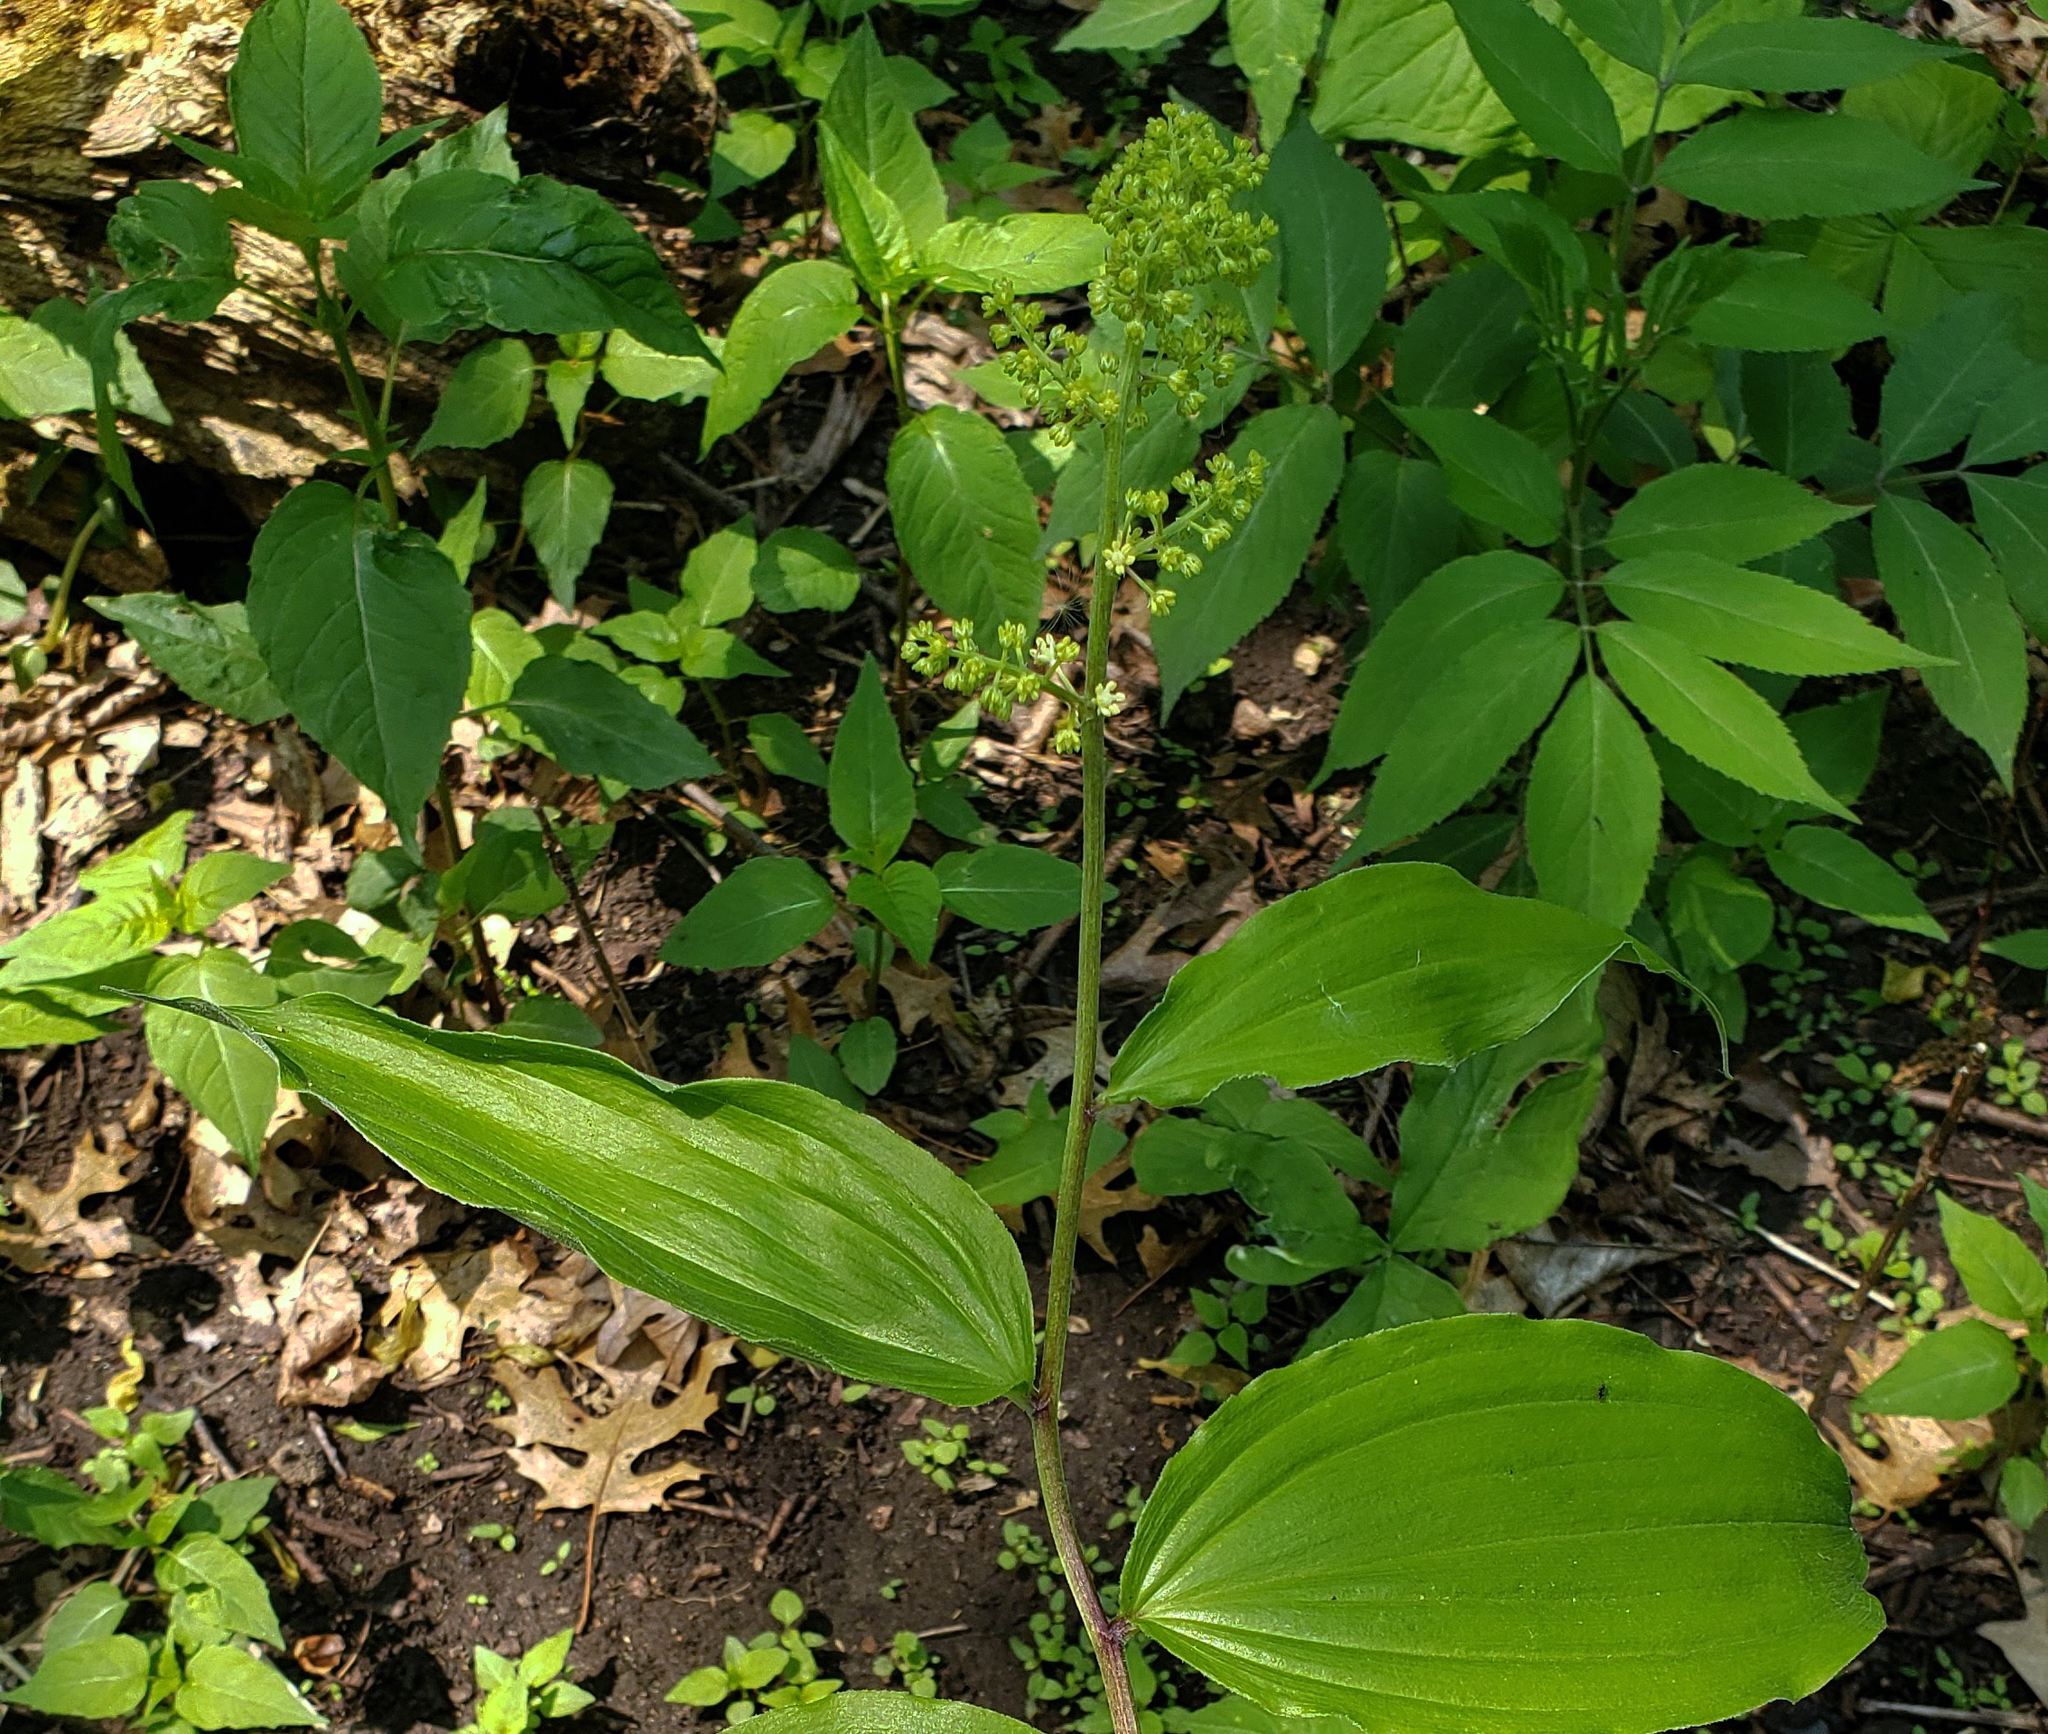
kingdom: Plantae
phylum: Tracheophyta
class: Liliopsida
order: Asparagales
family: Asparagaceae
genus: Maianthemum
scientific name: Maianthemum racemosum
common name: False spikenard
